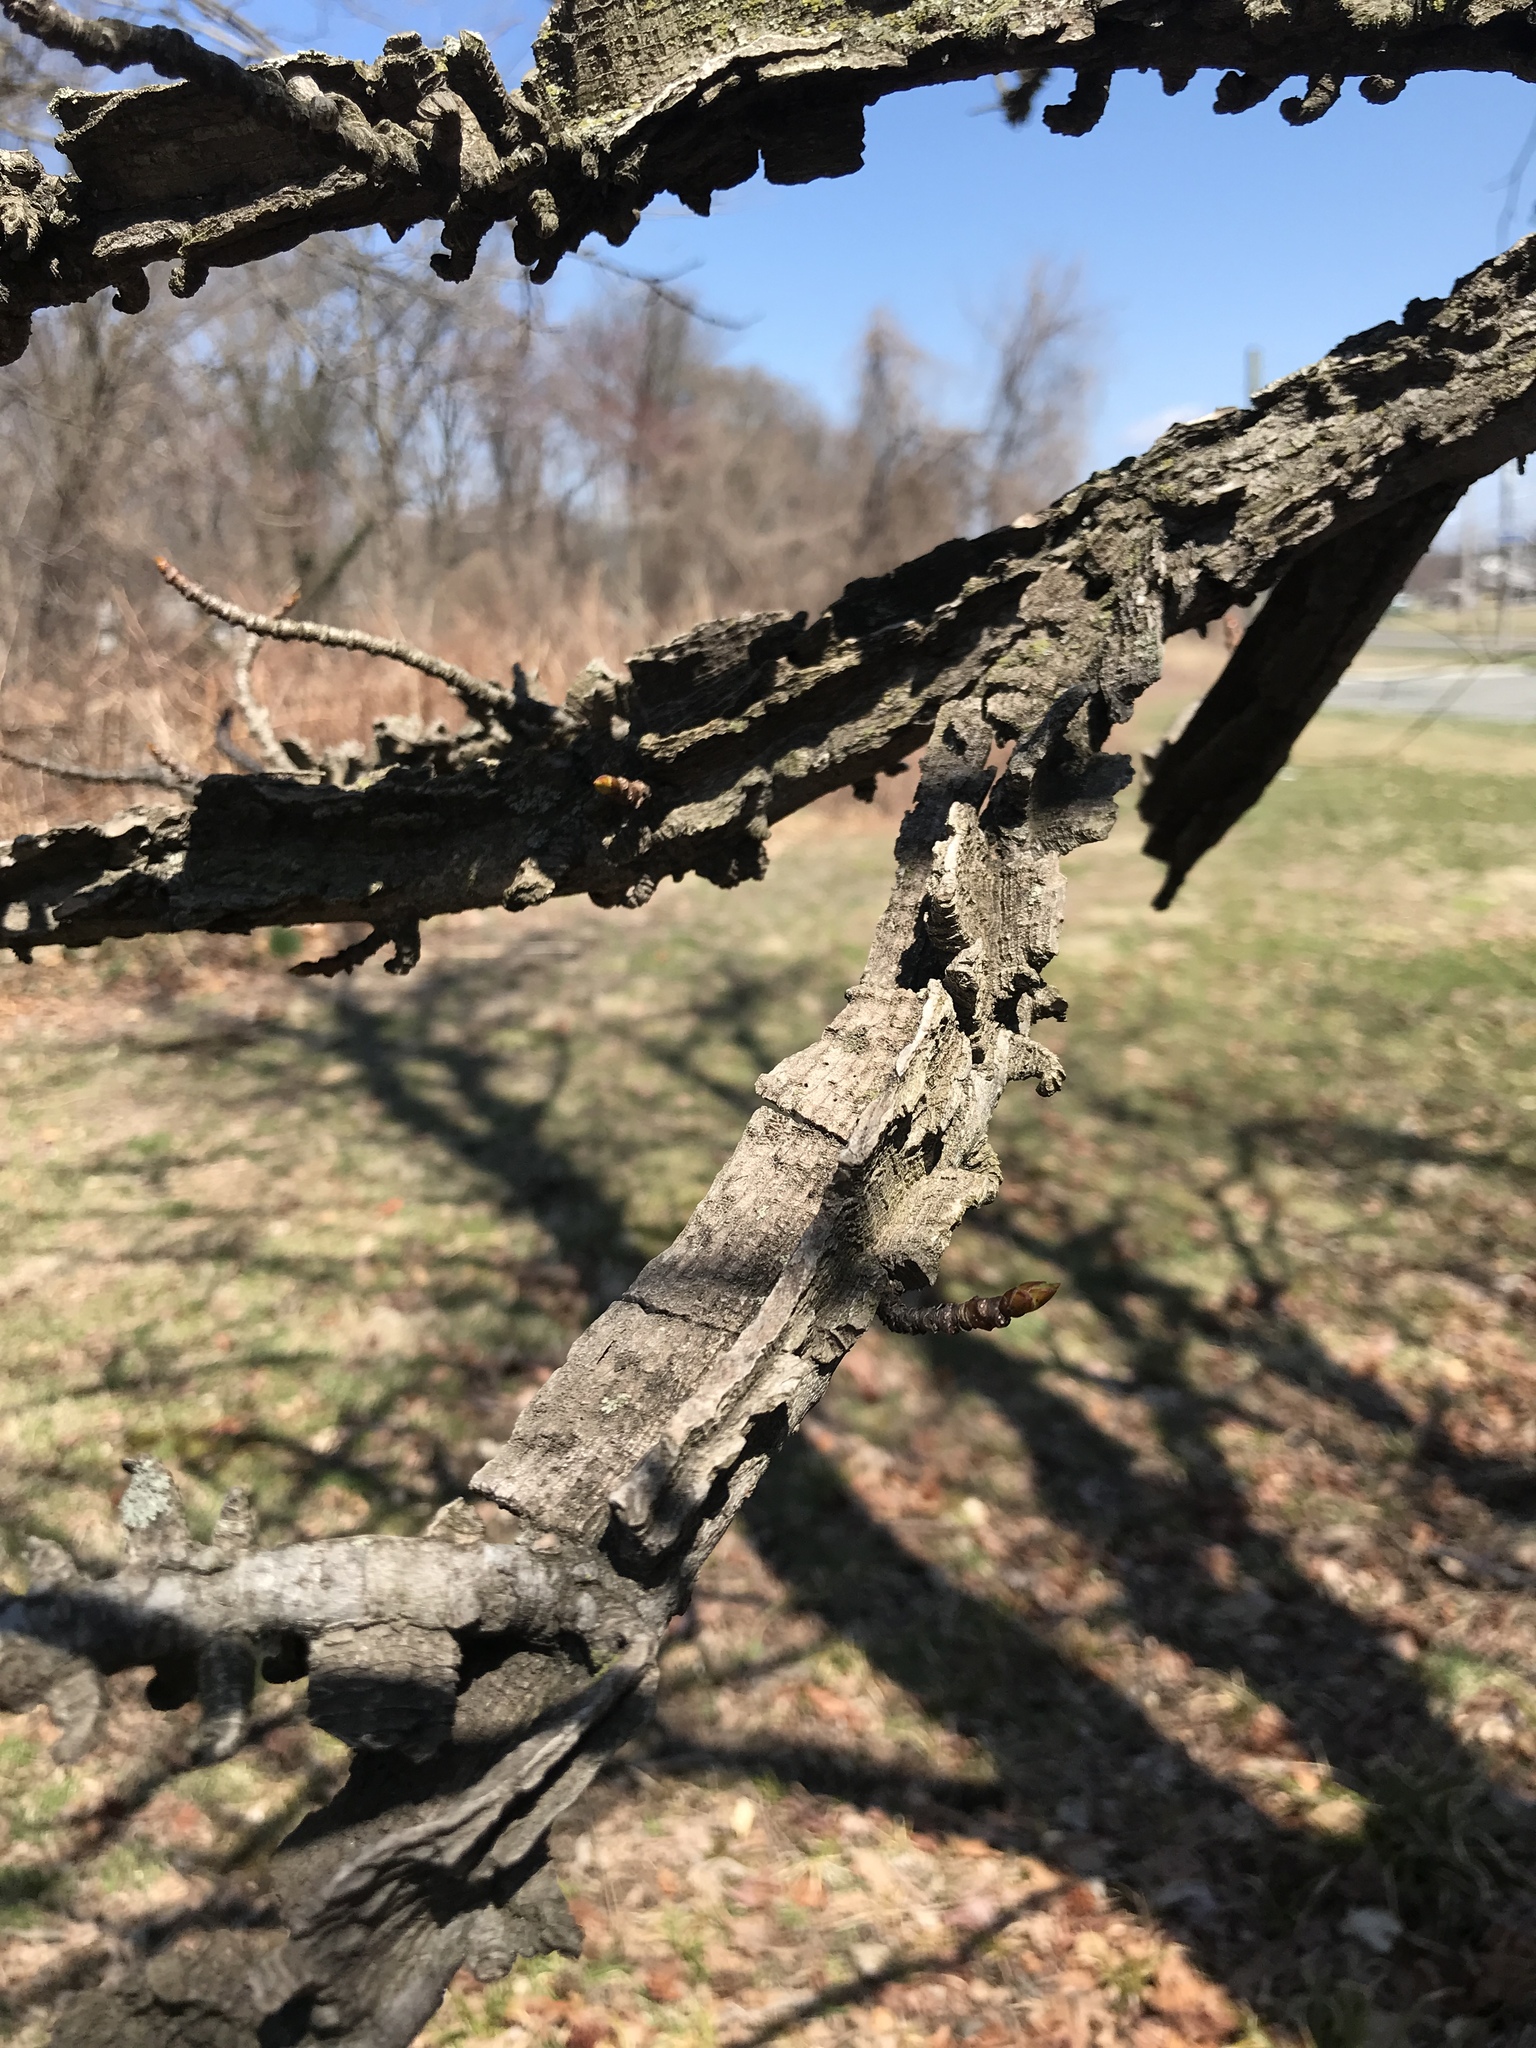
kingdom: Plantae
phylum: Tracheophyta
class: Magnoliopsida
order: Saxifragales
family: Altingiaceae
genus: Liquidambar
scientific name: Liquidambar styraciflua
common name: Sweet gum
